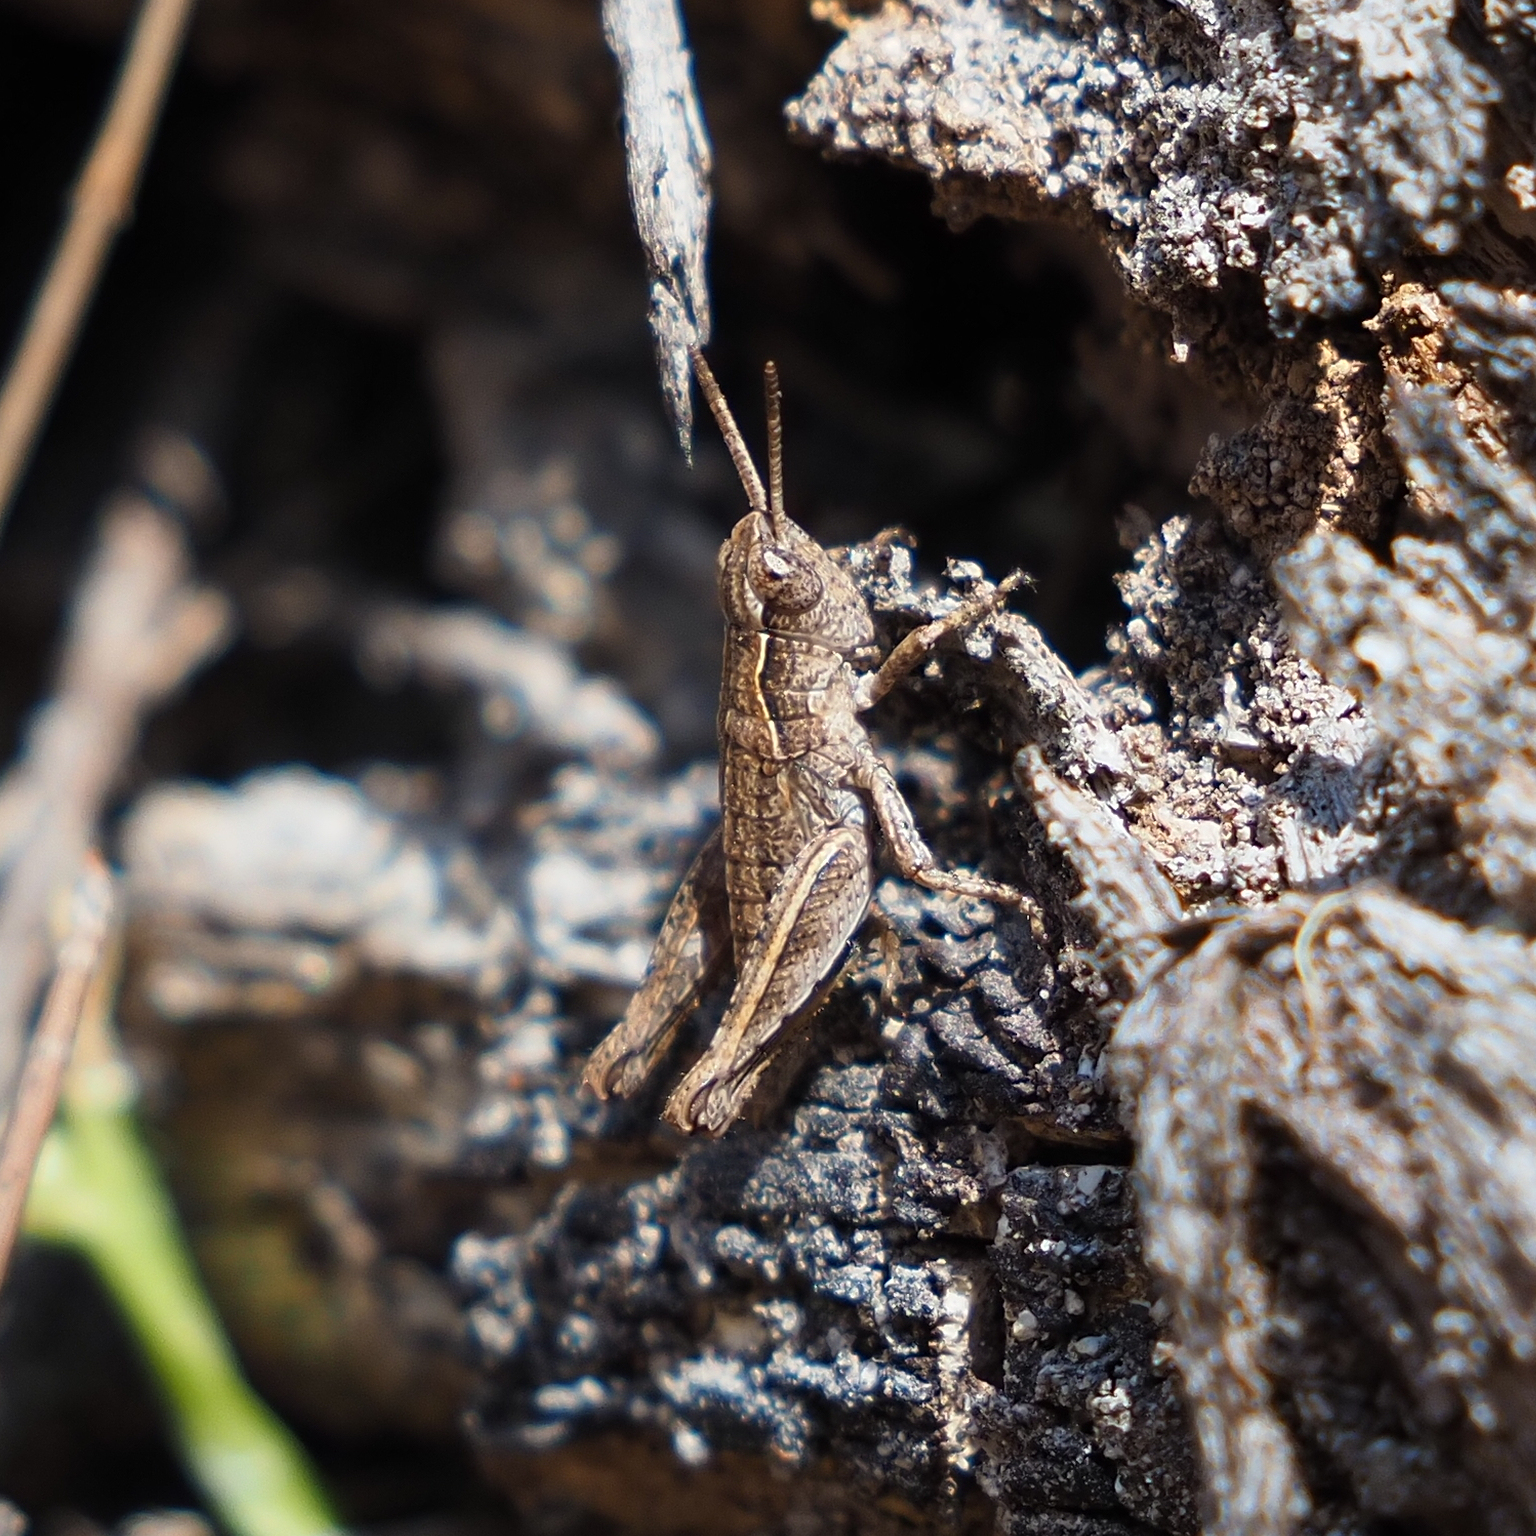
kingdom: Animalia
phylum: Arthropoda
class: Insecta
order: Orthoptera
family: Acrididae
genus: Tasmaniacris
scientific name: Tasmaniacris tasmaniensis
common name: Tasmanian grasshopper
